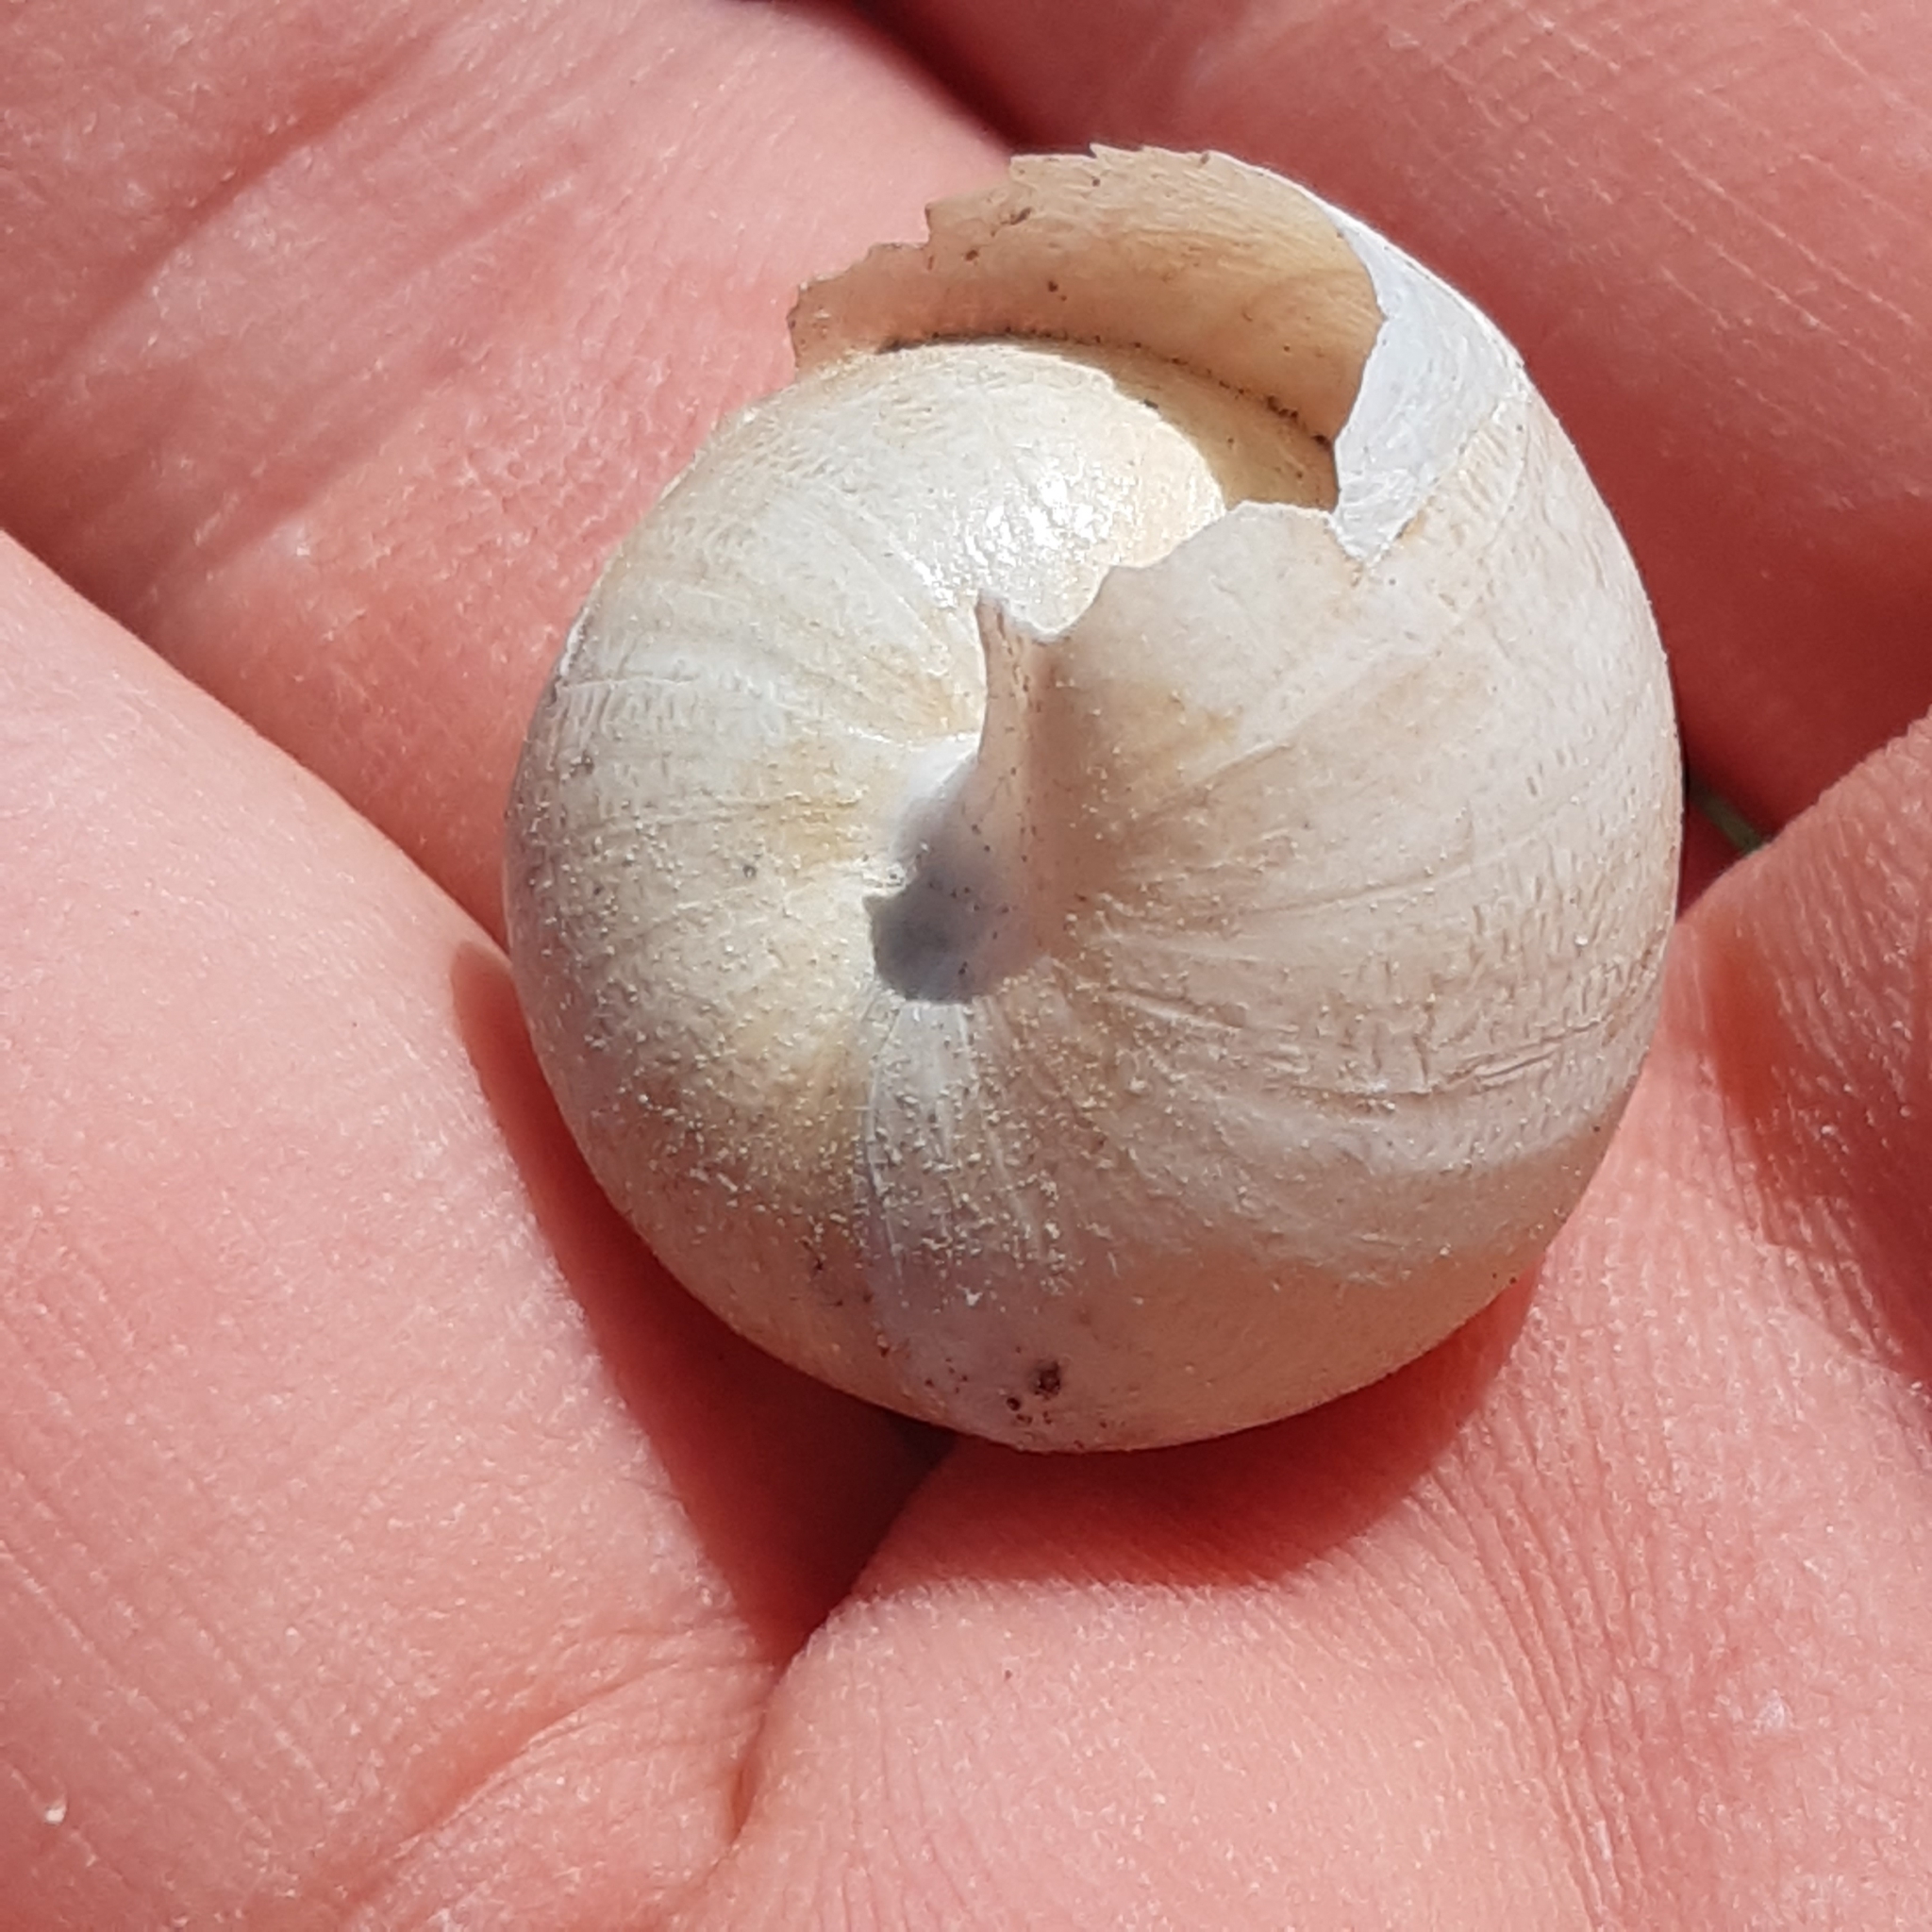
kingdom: Animalia
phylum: Mollusca
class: Gastropoda
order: Stylommatophora
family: Helicidae
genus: Eobania
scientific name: Eobania vermiculata
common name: Chocolateband snail
